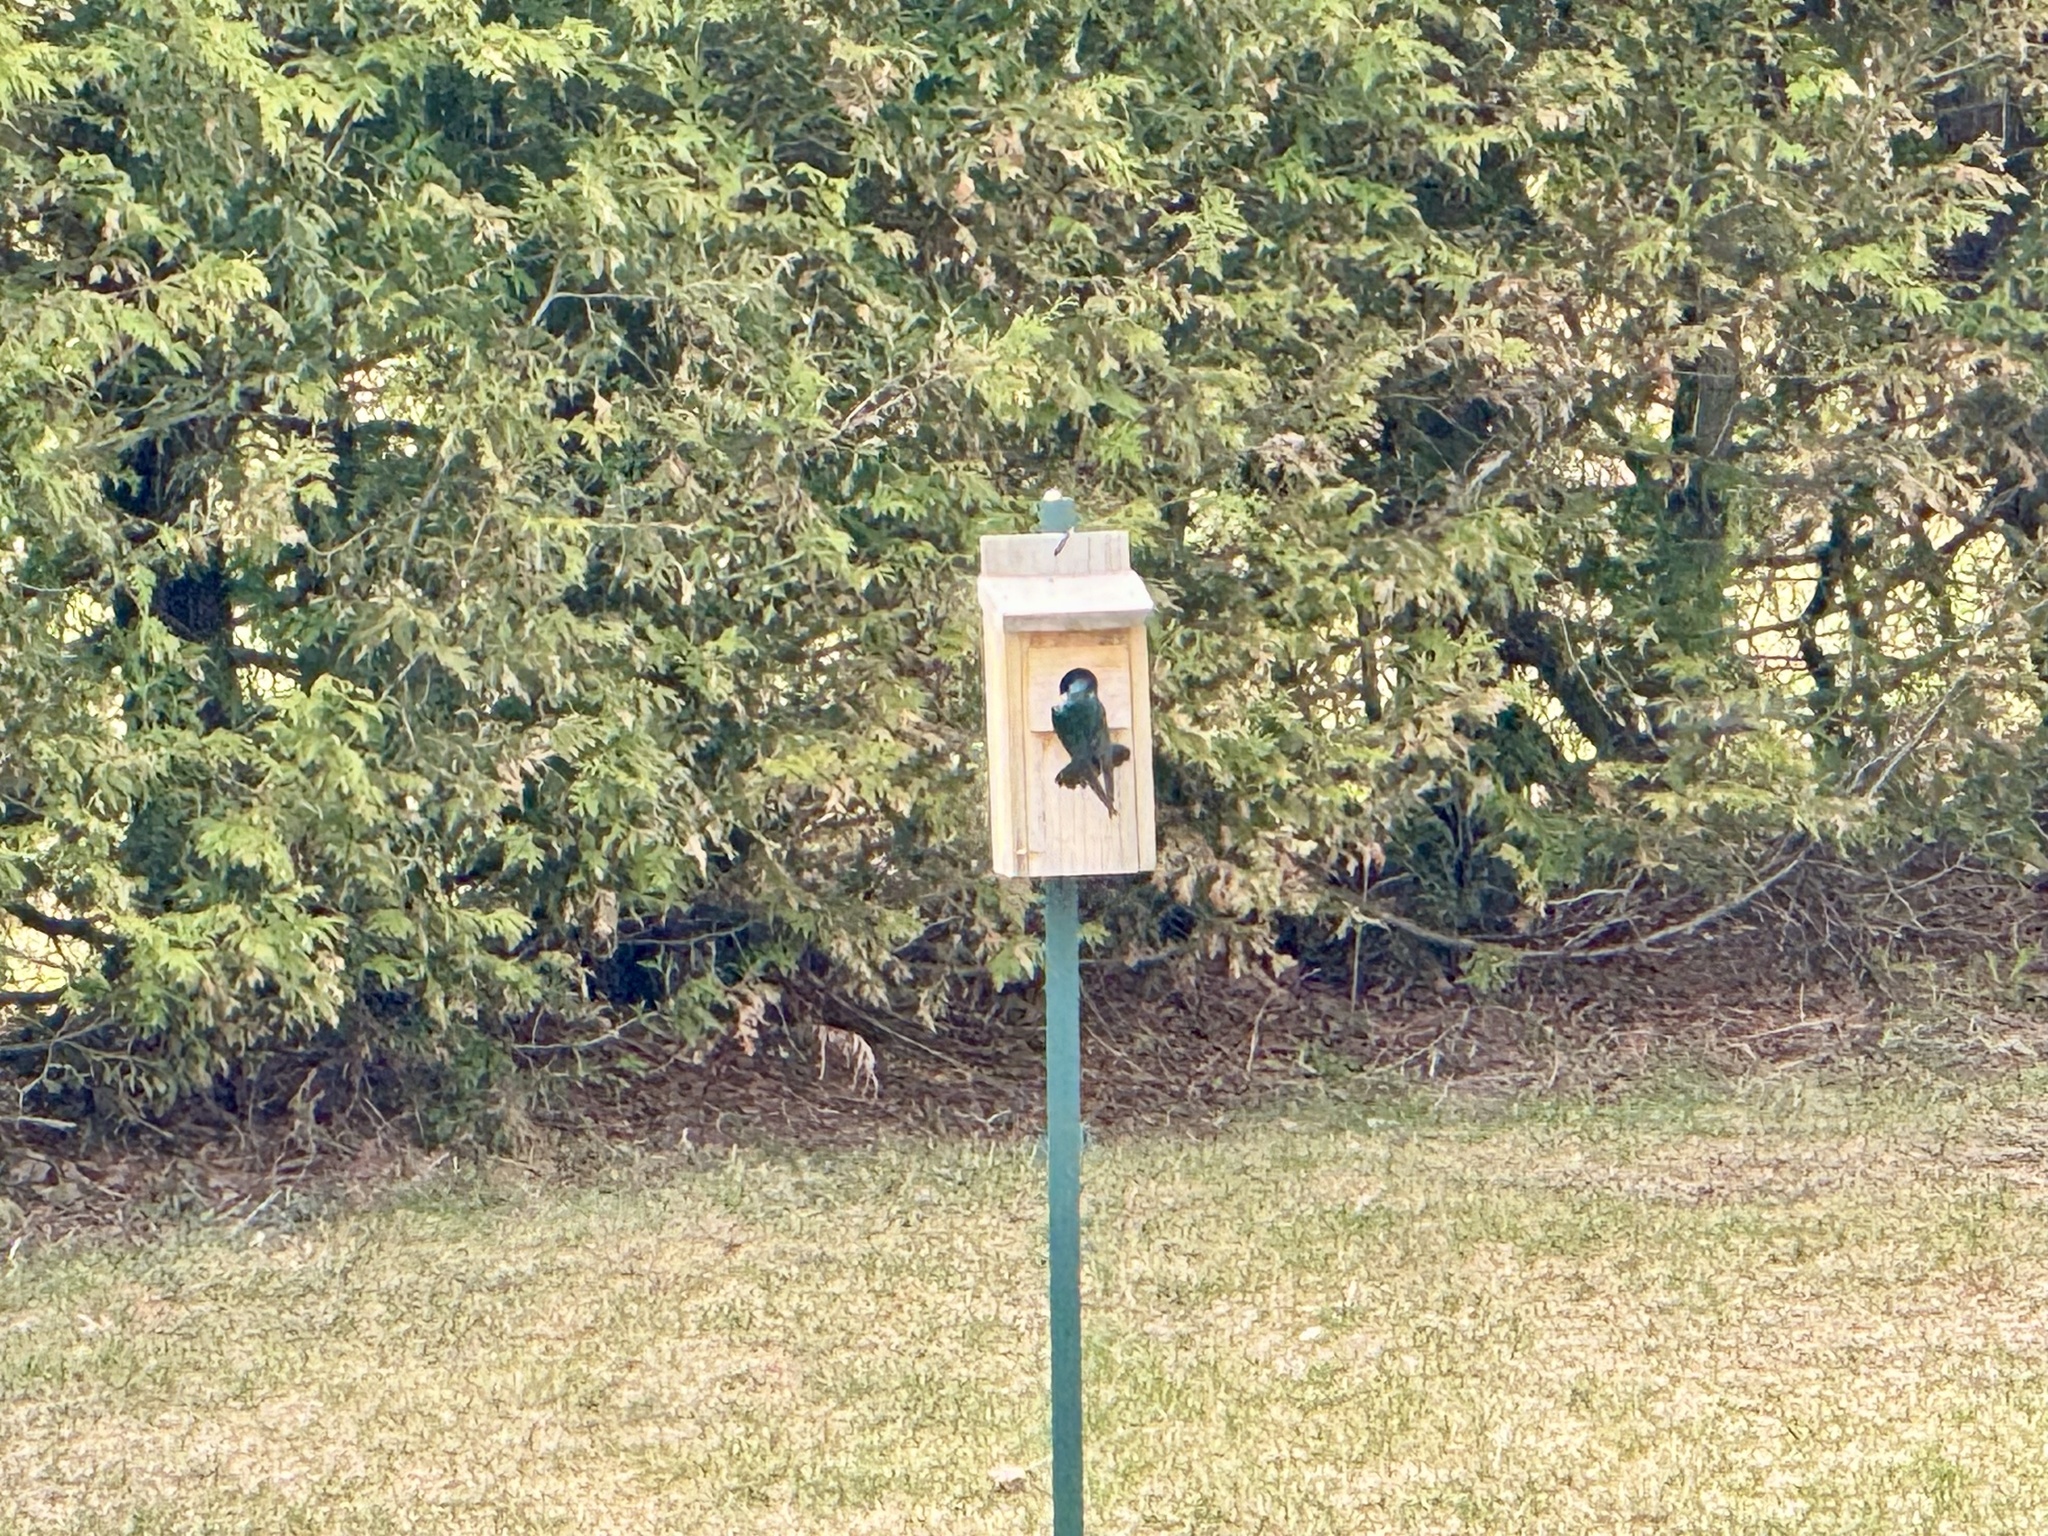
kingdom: Animalia
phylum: Chordata
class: Aves
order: Passeriformes
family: Hirundinidae
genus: Tachycineta
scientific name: Tachycineta bicolor
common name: Tree swallow
